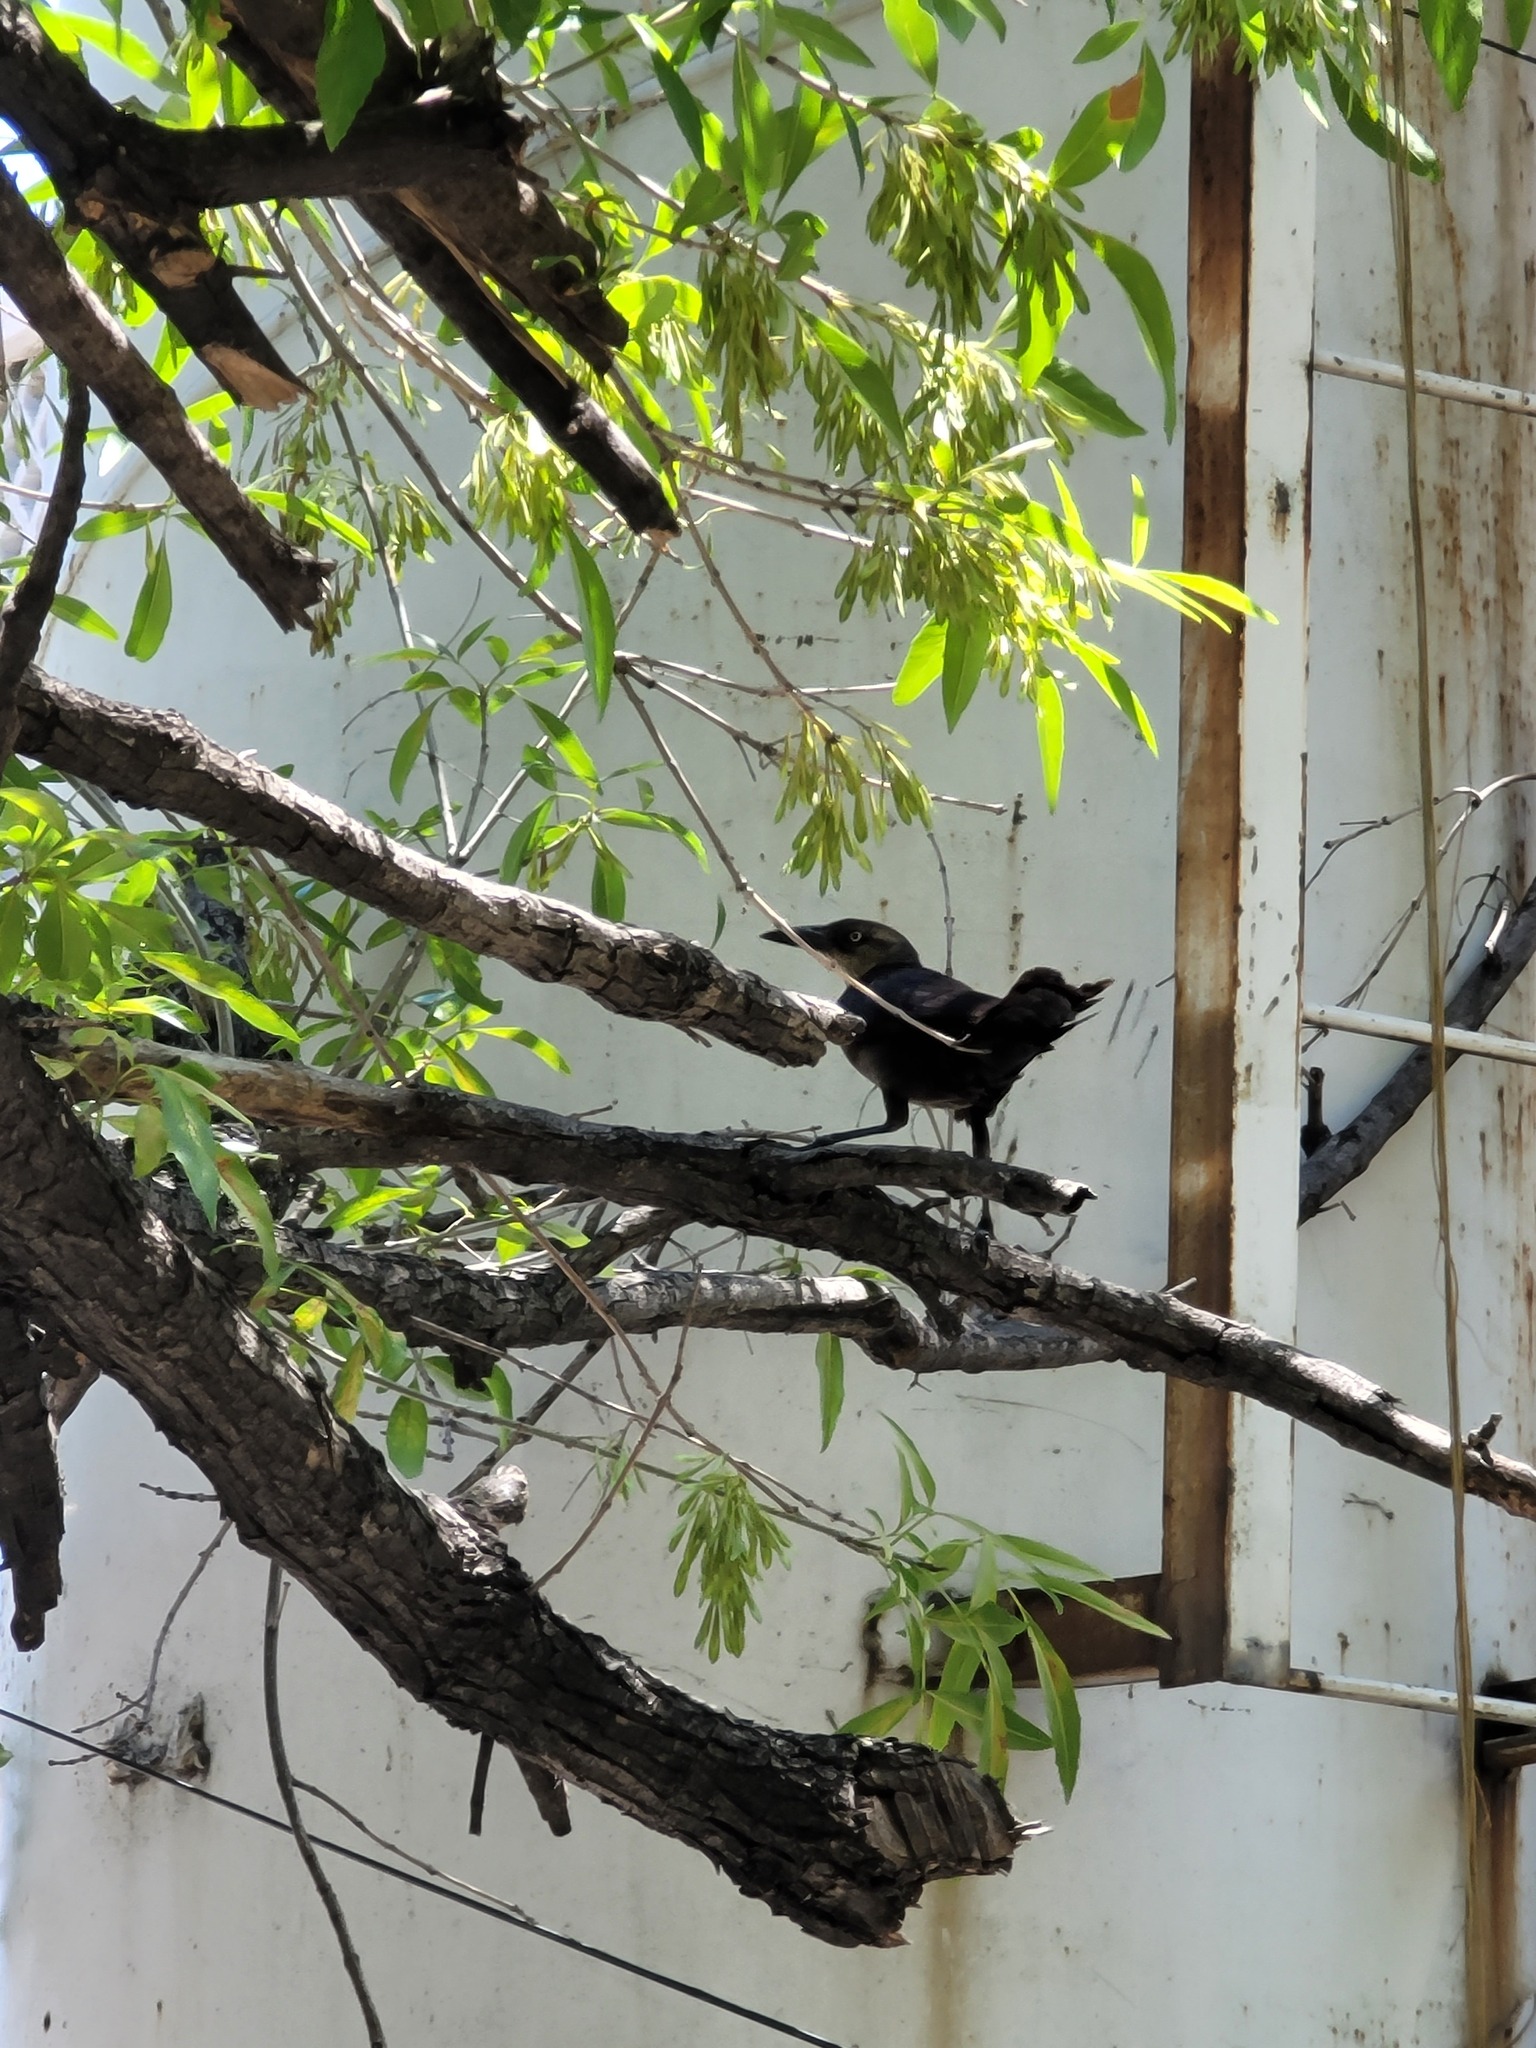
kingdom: Animalia
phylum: Chordata
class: Aves
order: Passeriformes
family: Icteridae
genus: Quiscalus
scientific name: Quiscalus mexicanus
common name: Great-tailed grackle
